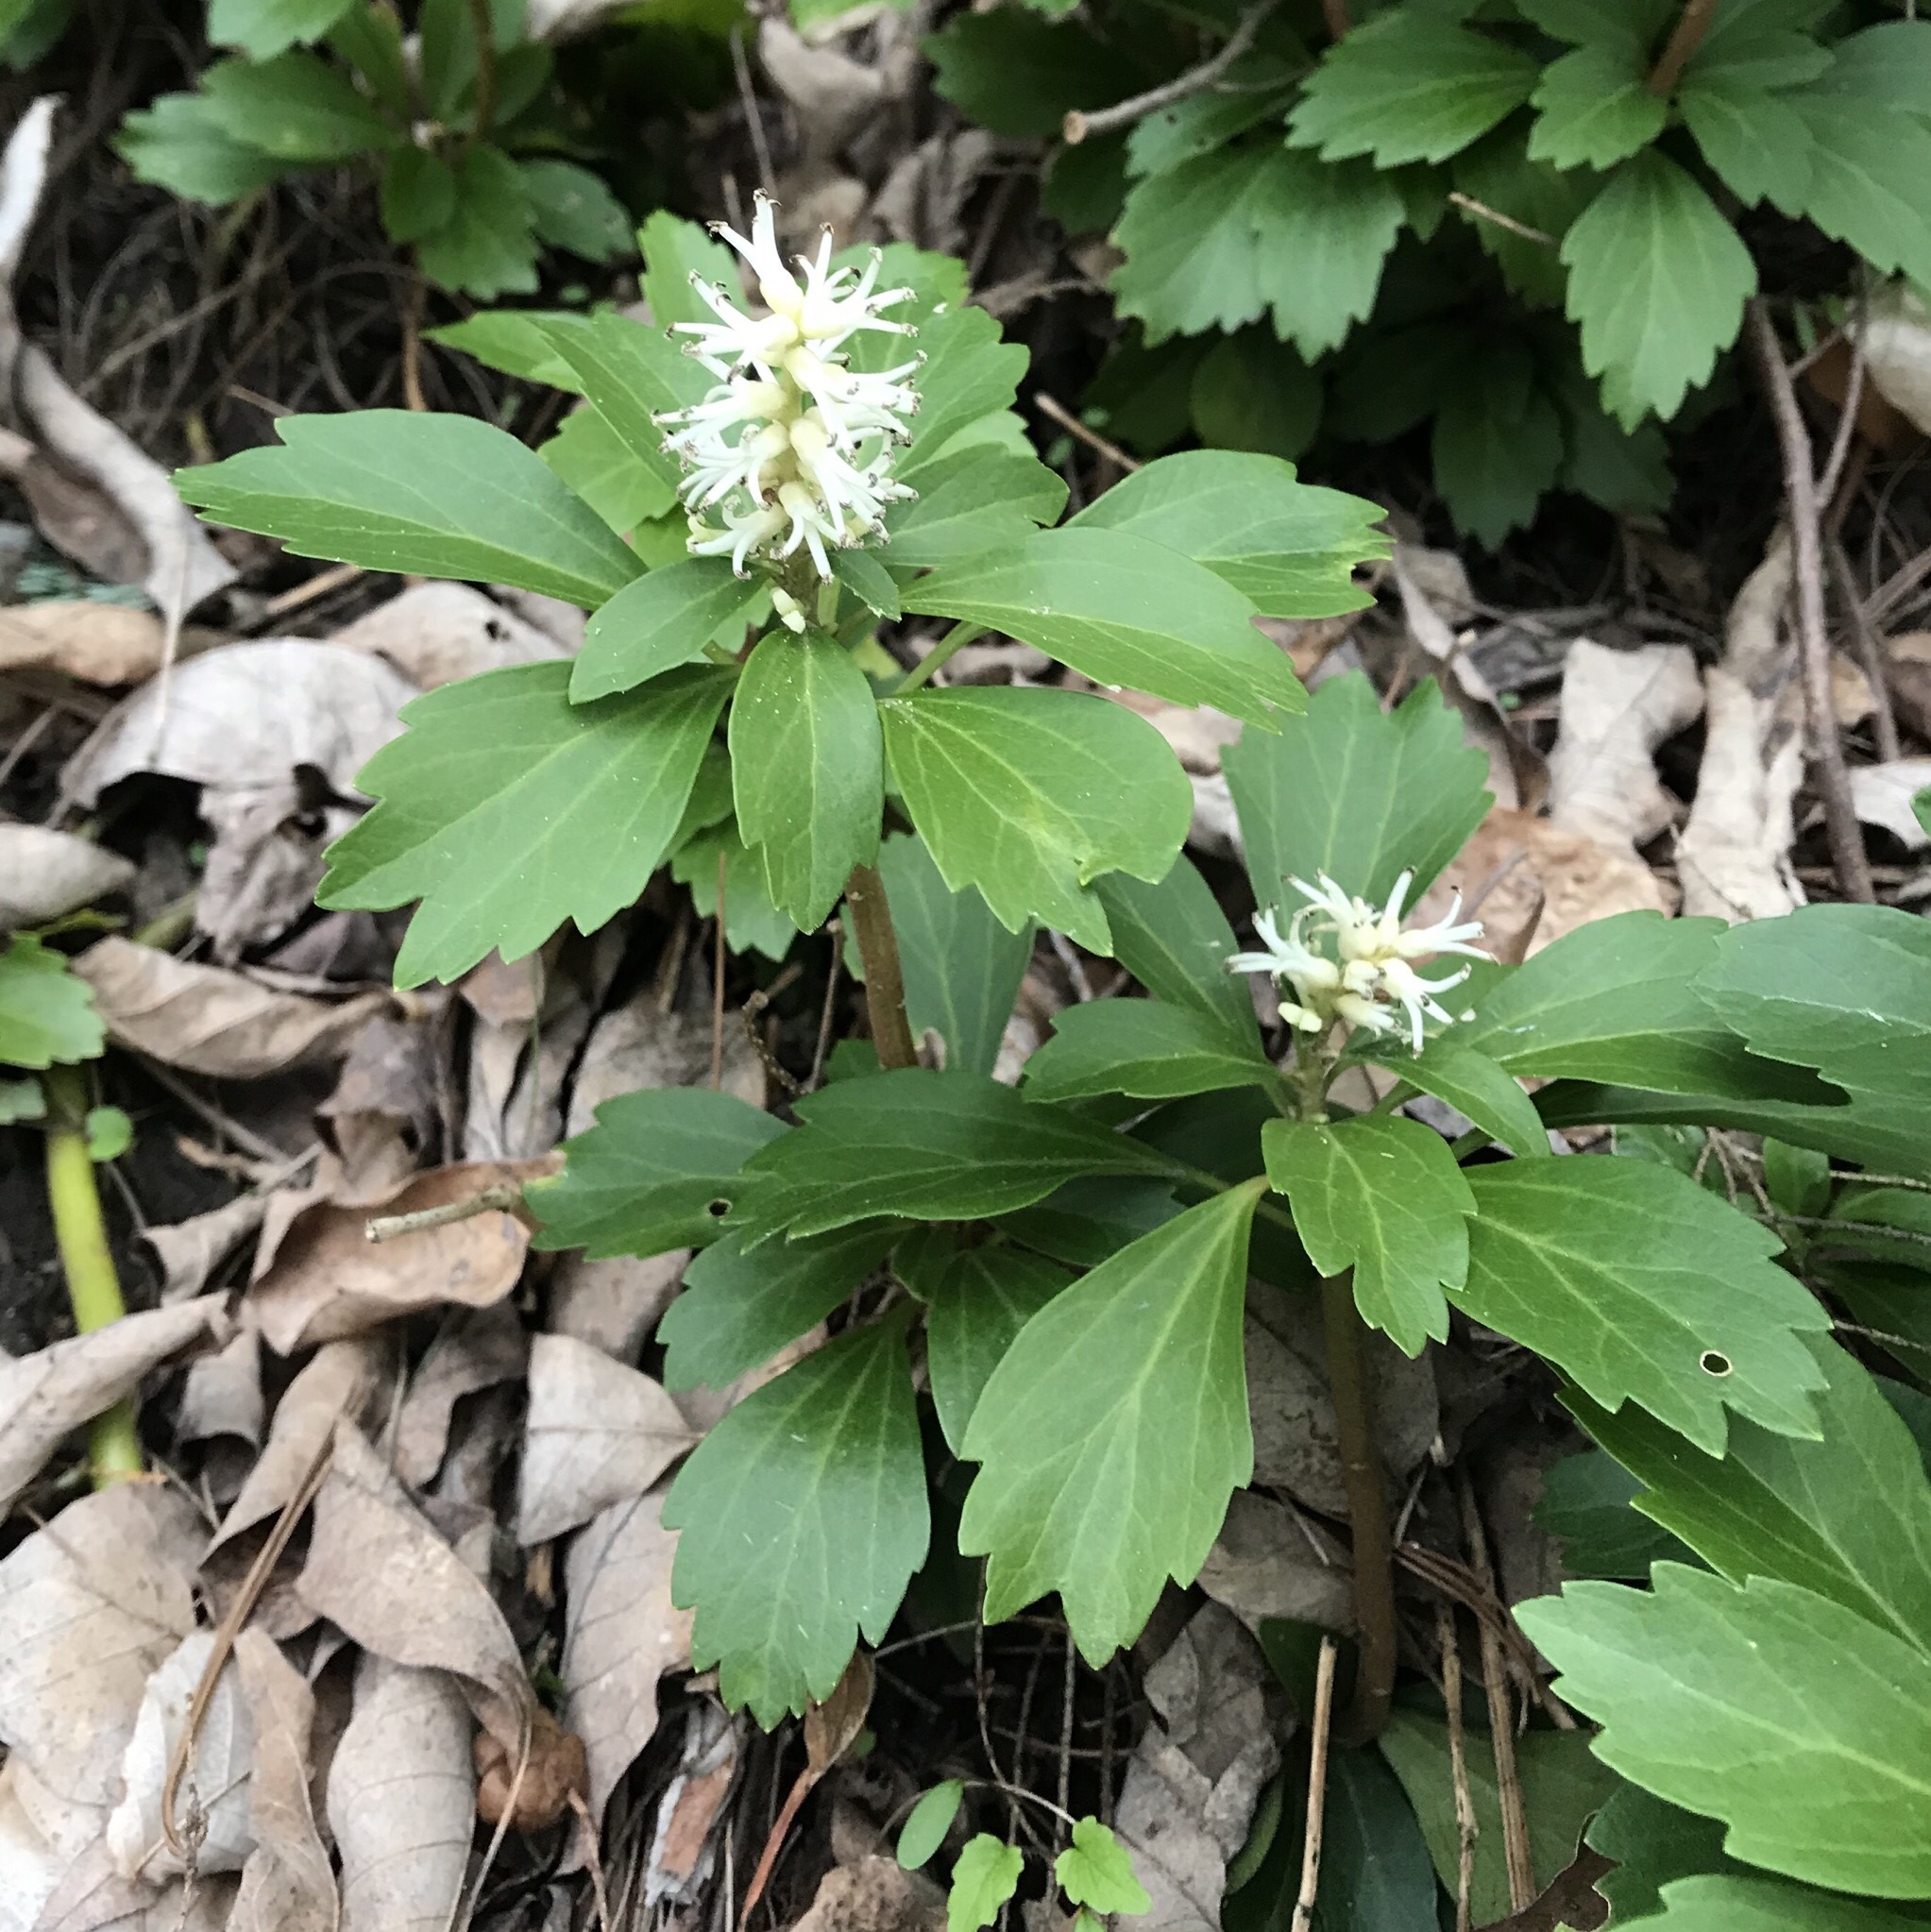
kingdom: Plantae
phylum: Tracheophyta
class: Magnoliopsida
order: Buxales
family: Buxaceae
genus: Pachysandra
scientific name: Pachysandra terminalis
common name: Japanese pachysandra
